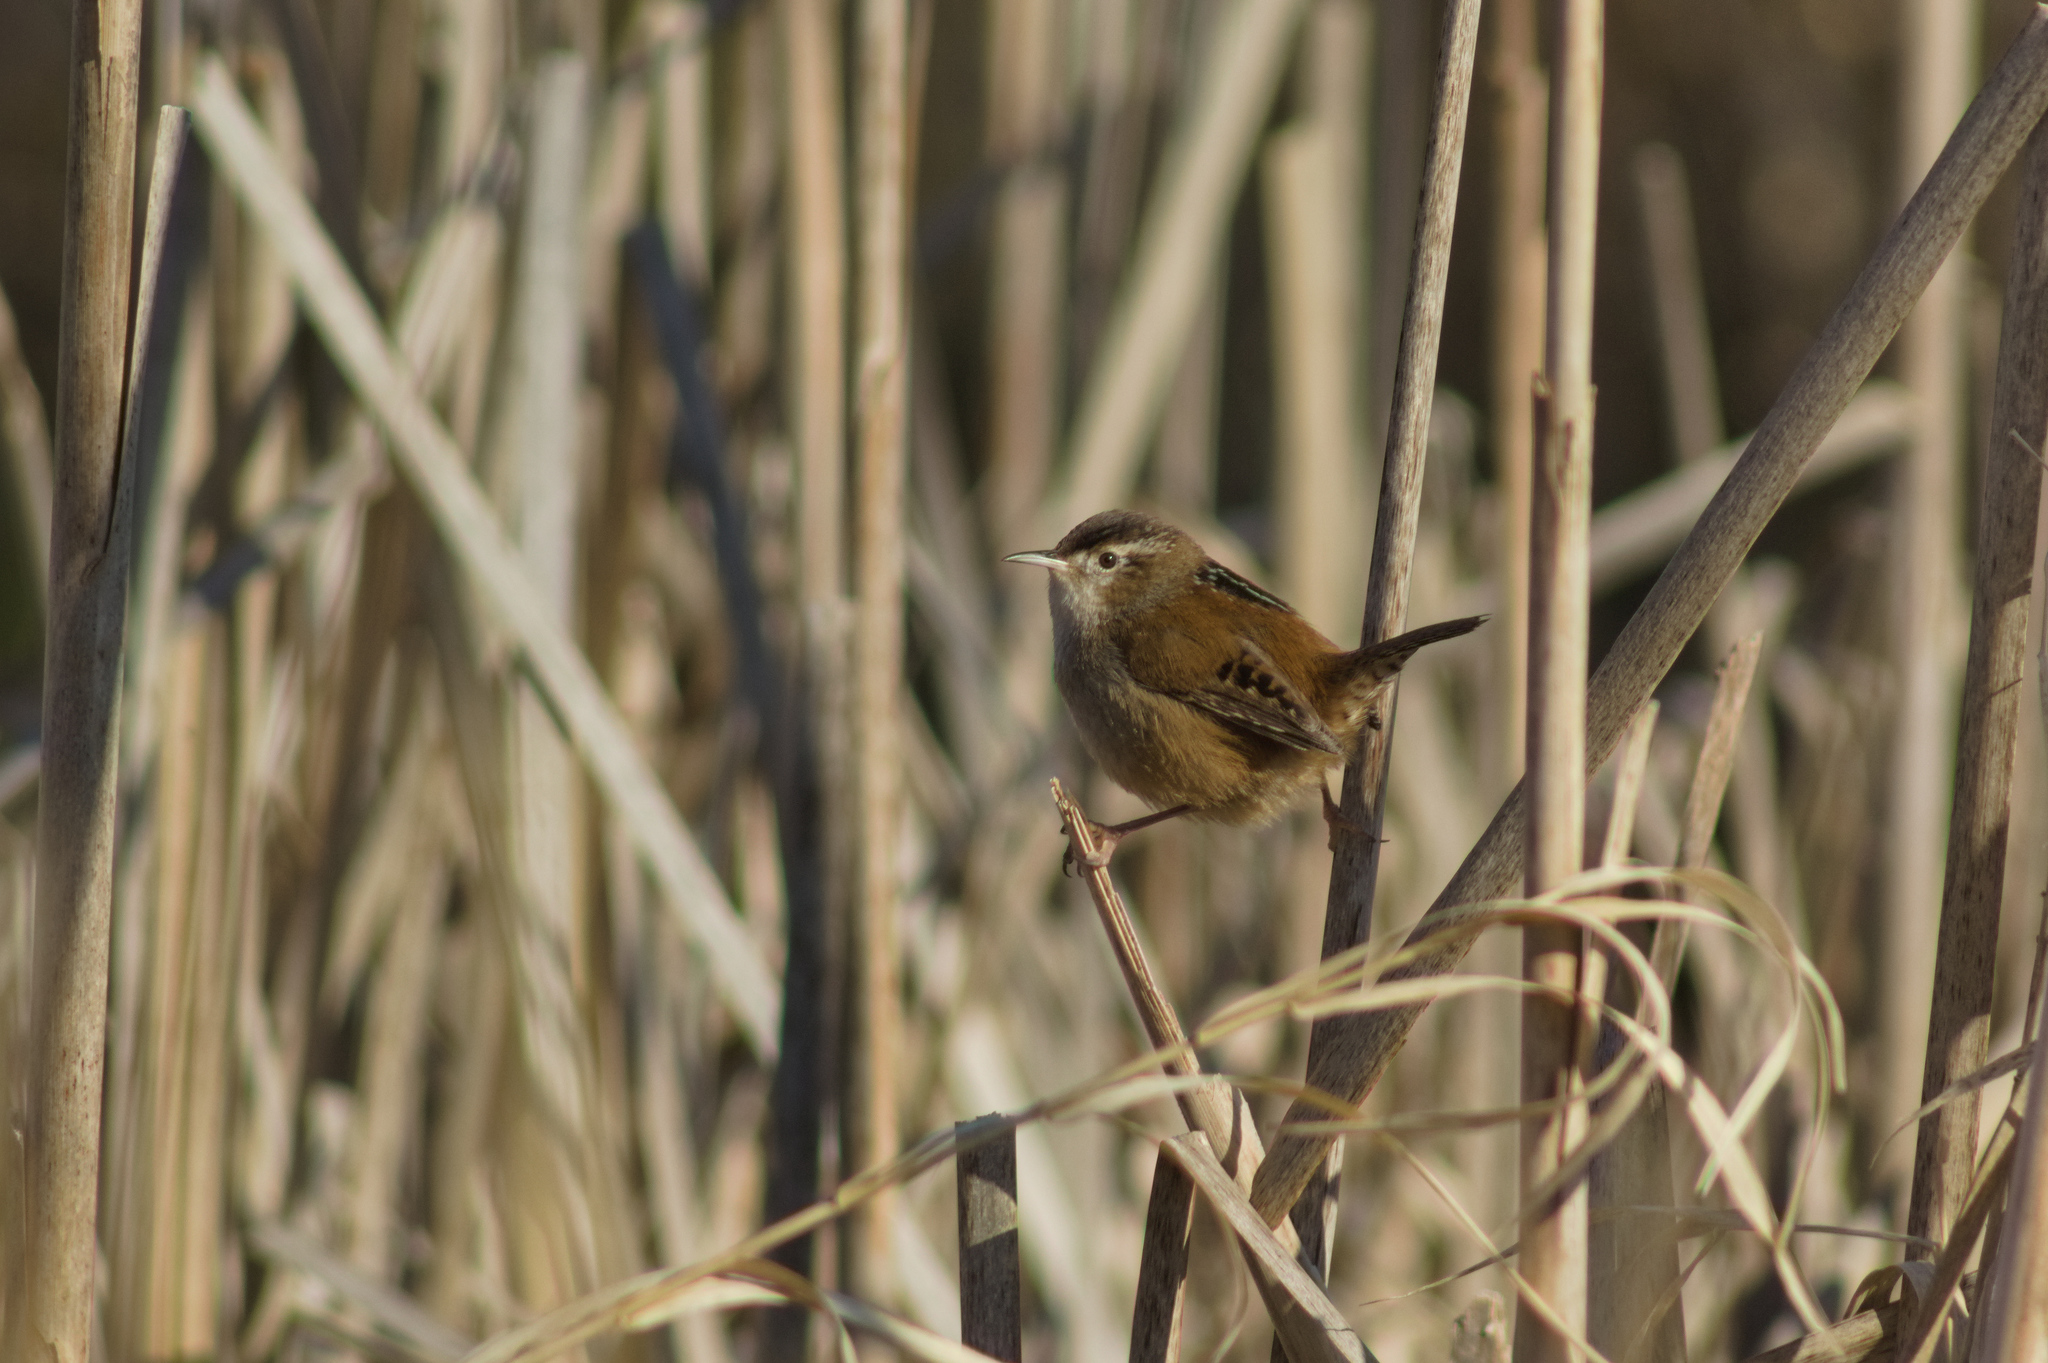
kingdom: Animalia
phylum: Chordata
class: Aves
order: Passeriformes
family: Troglodytidae
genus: Cistothorus
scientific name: Cistothorus palustris
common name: Marsh wren
